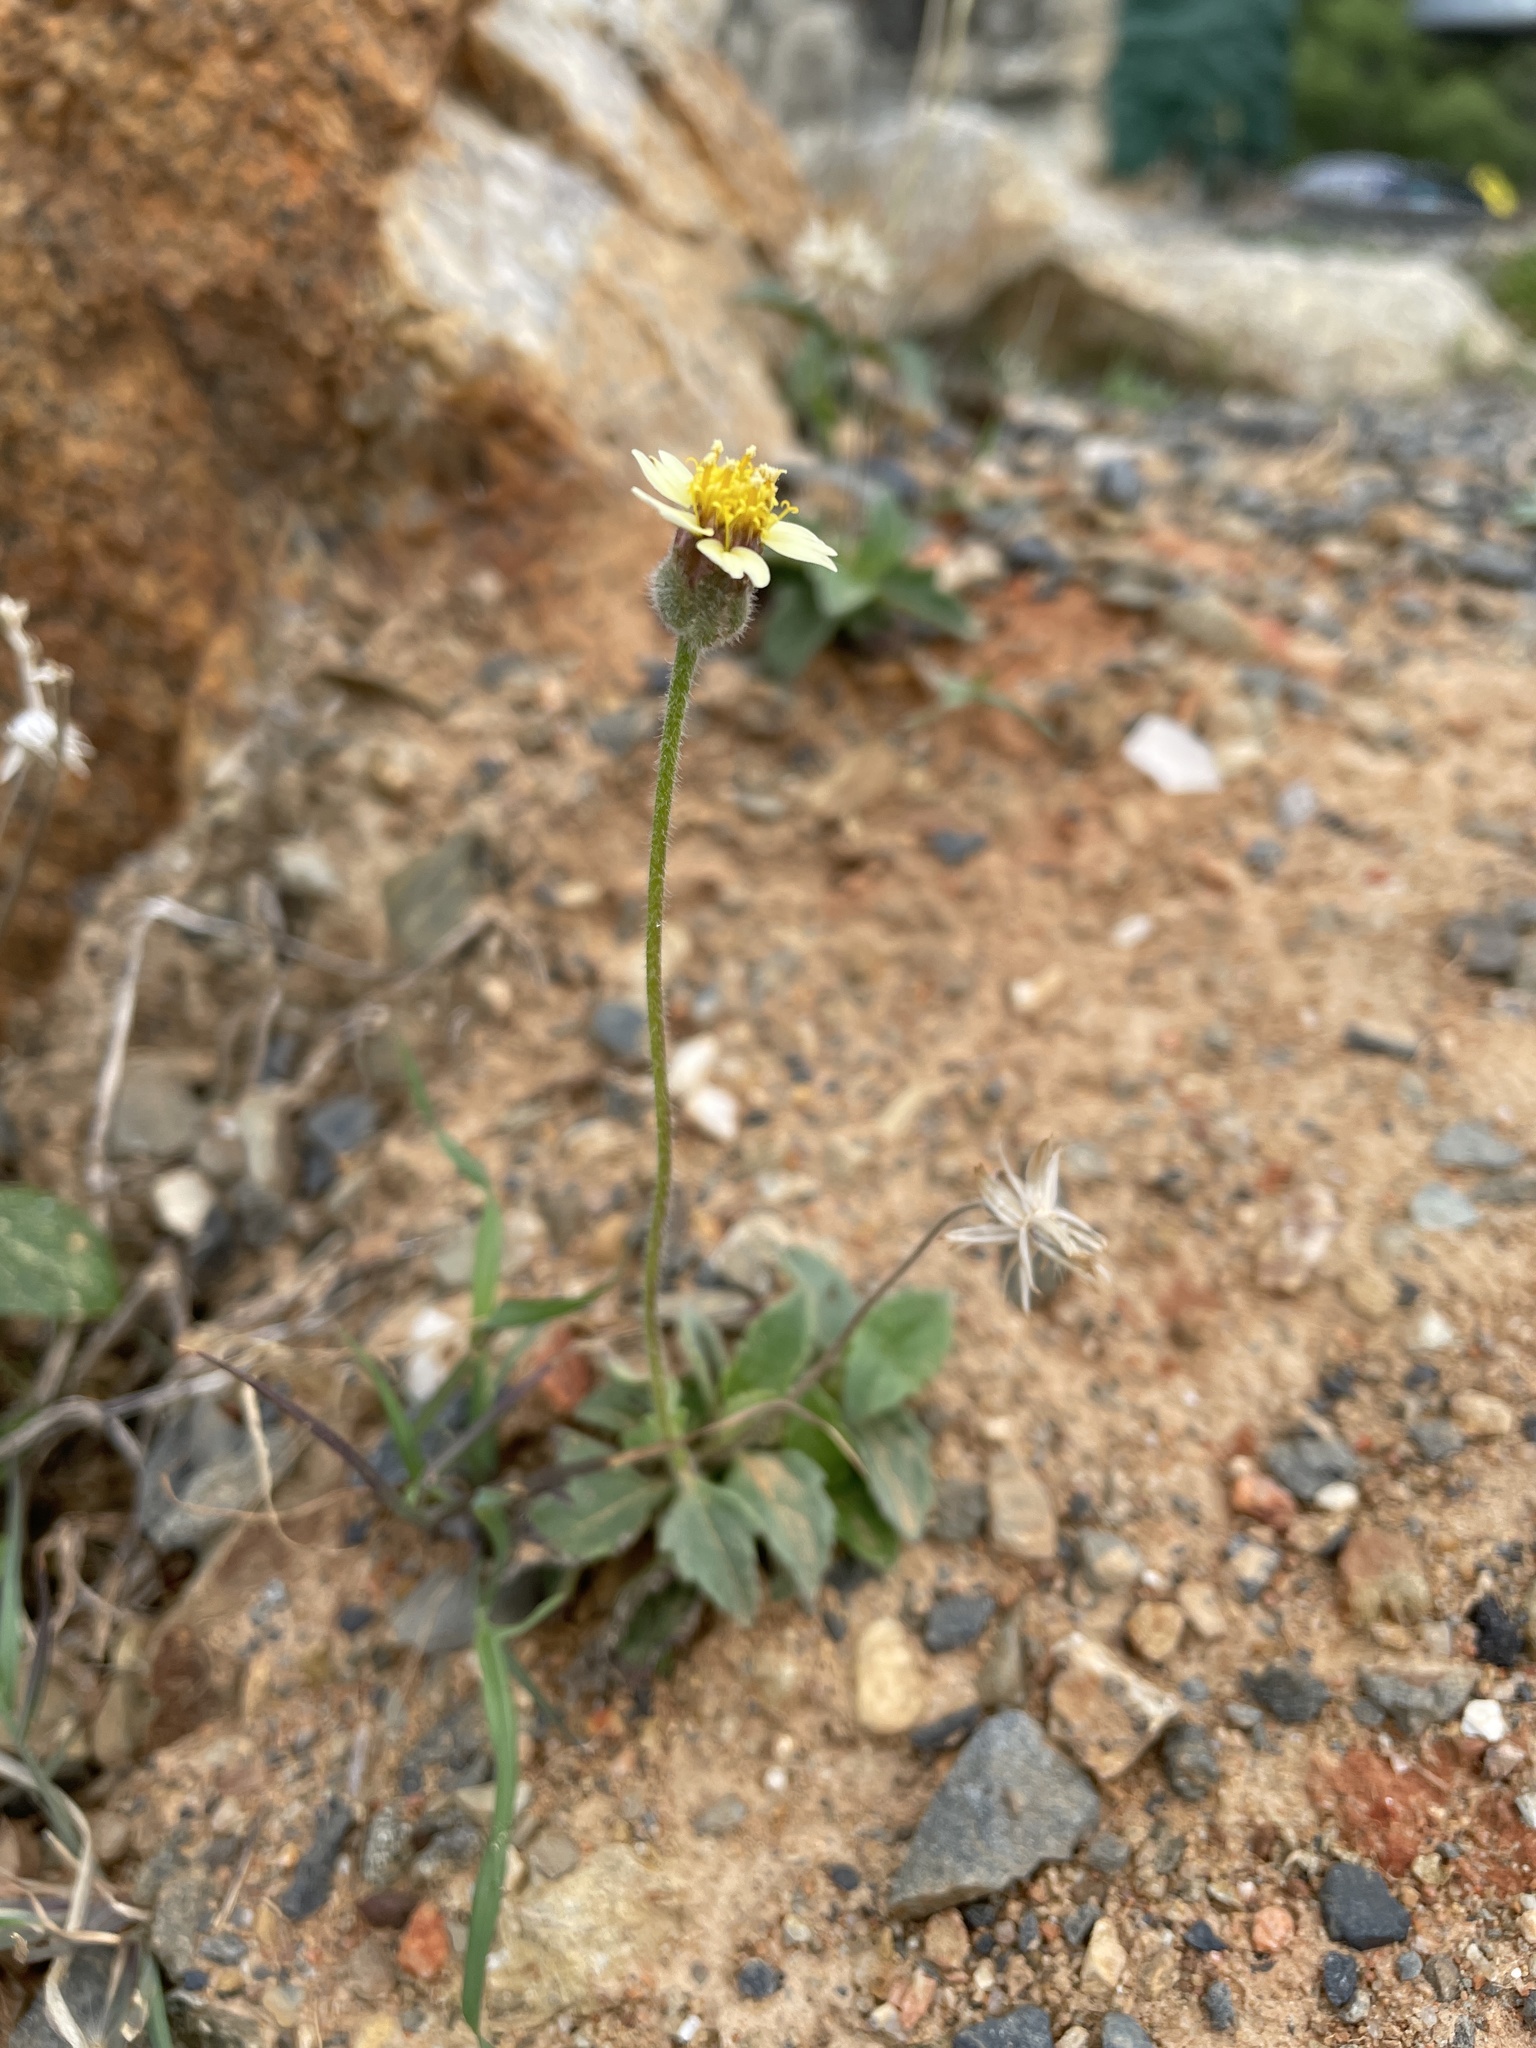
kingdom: Plantae
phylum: Tracheophyta
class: Magnoliopsida
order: Asterales
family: Asteraceae
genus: Tridax
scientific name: Tridax procumbens
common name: Coatbuttons
